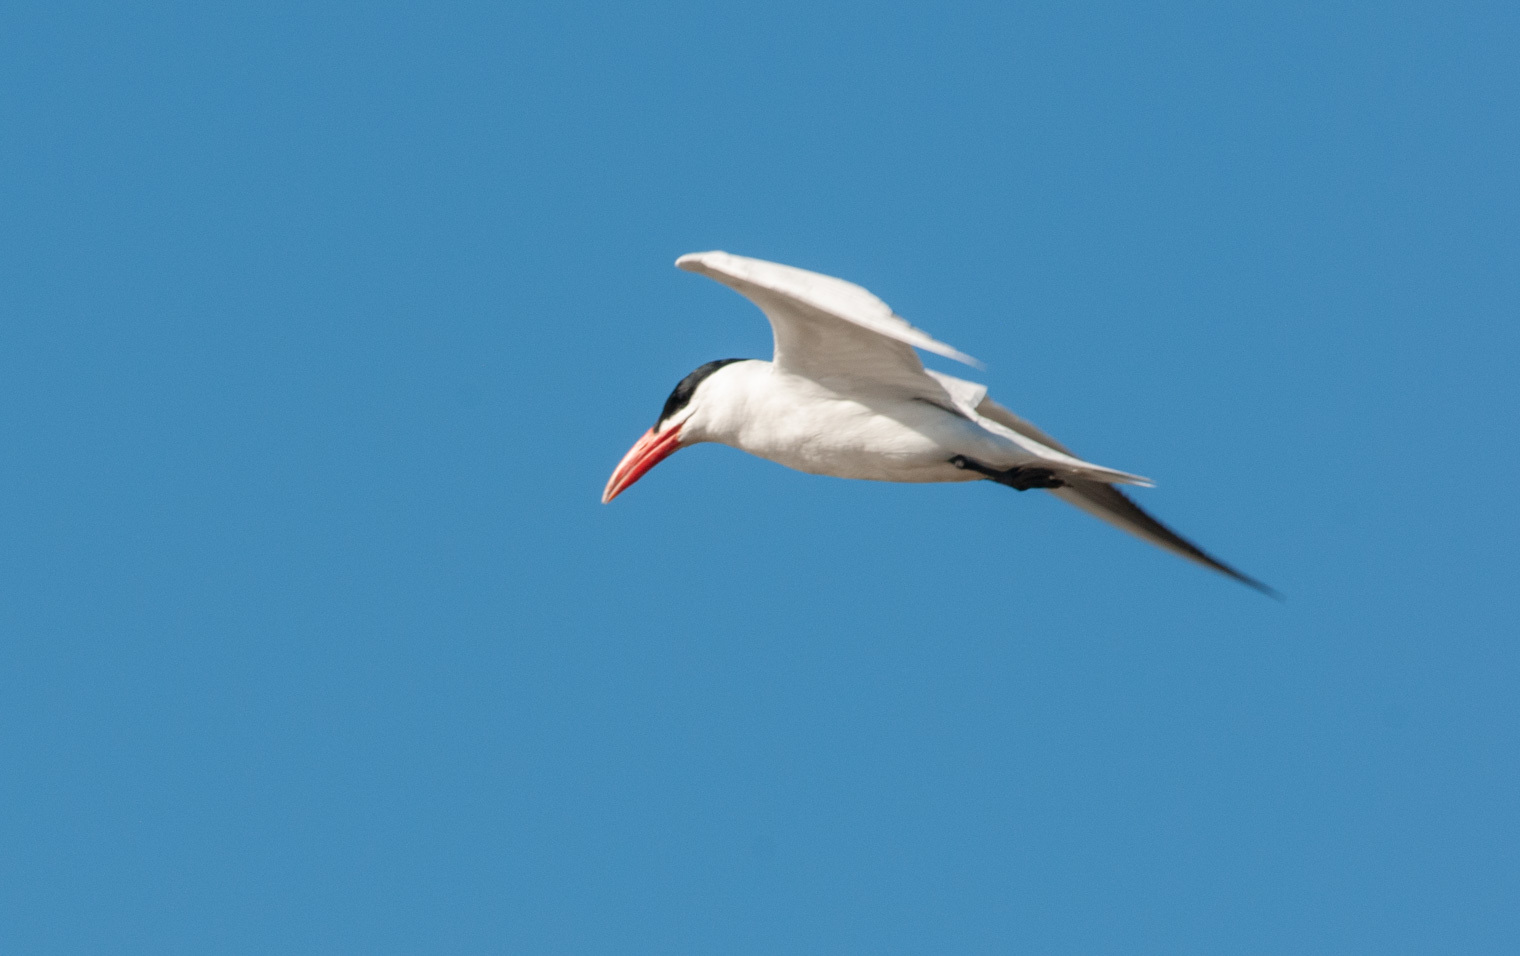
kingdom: Animalia
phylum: Chordata
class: Aves
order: Charadriiformes
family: Laridae
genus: Hydroprogne
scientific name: Hydroprogne caspia
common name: Caspian tern
